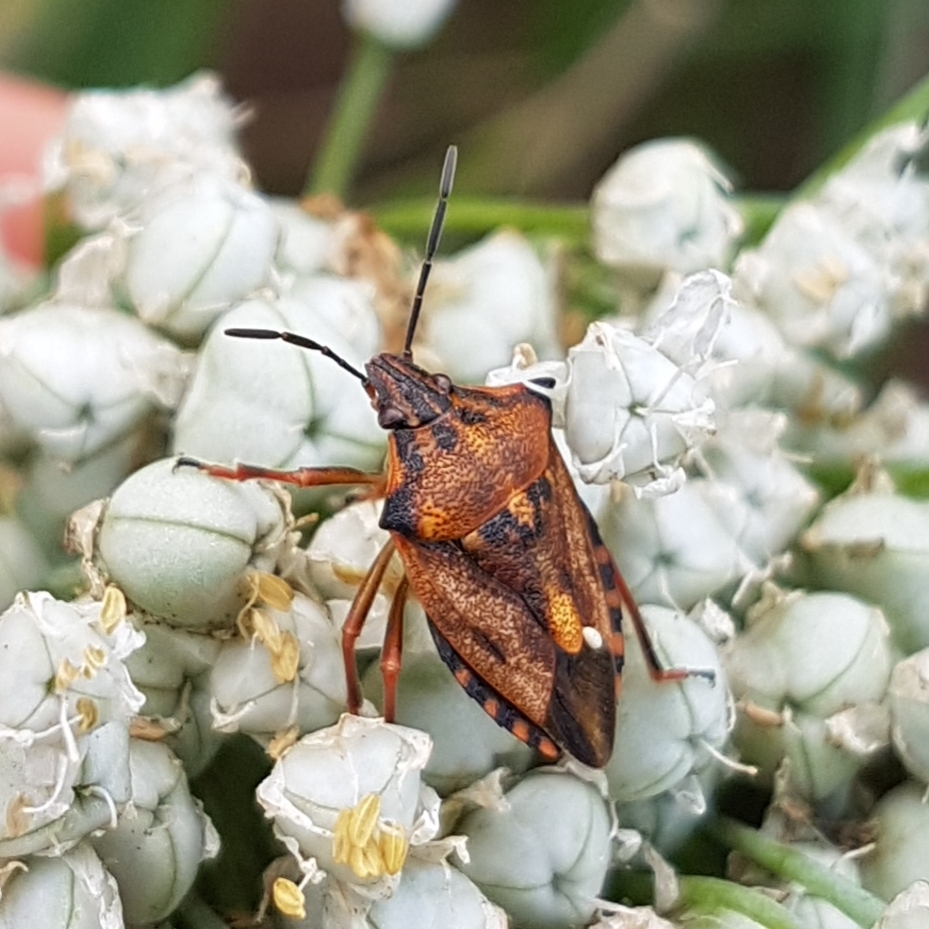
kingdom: Animalia
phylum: Arthropoda
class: Insecta
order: Hemiptera
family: Pentatomidae
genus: Carpocoris
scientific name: Carpocoris mediterraneus
